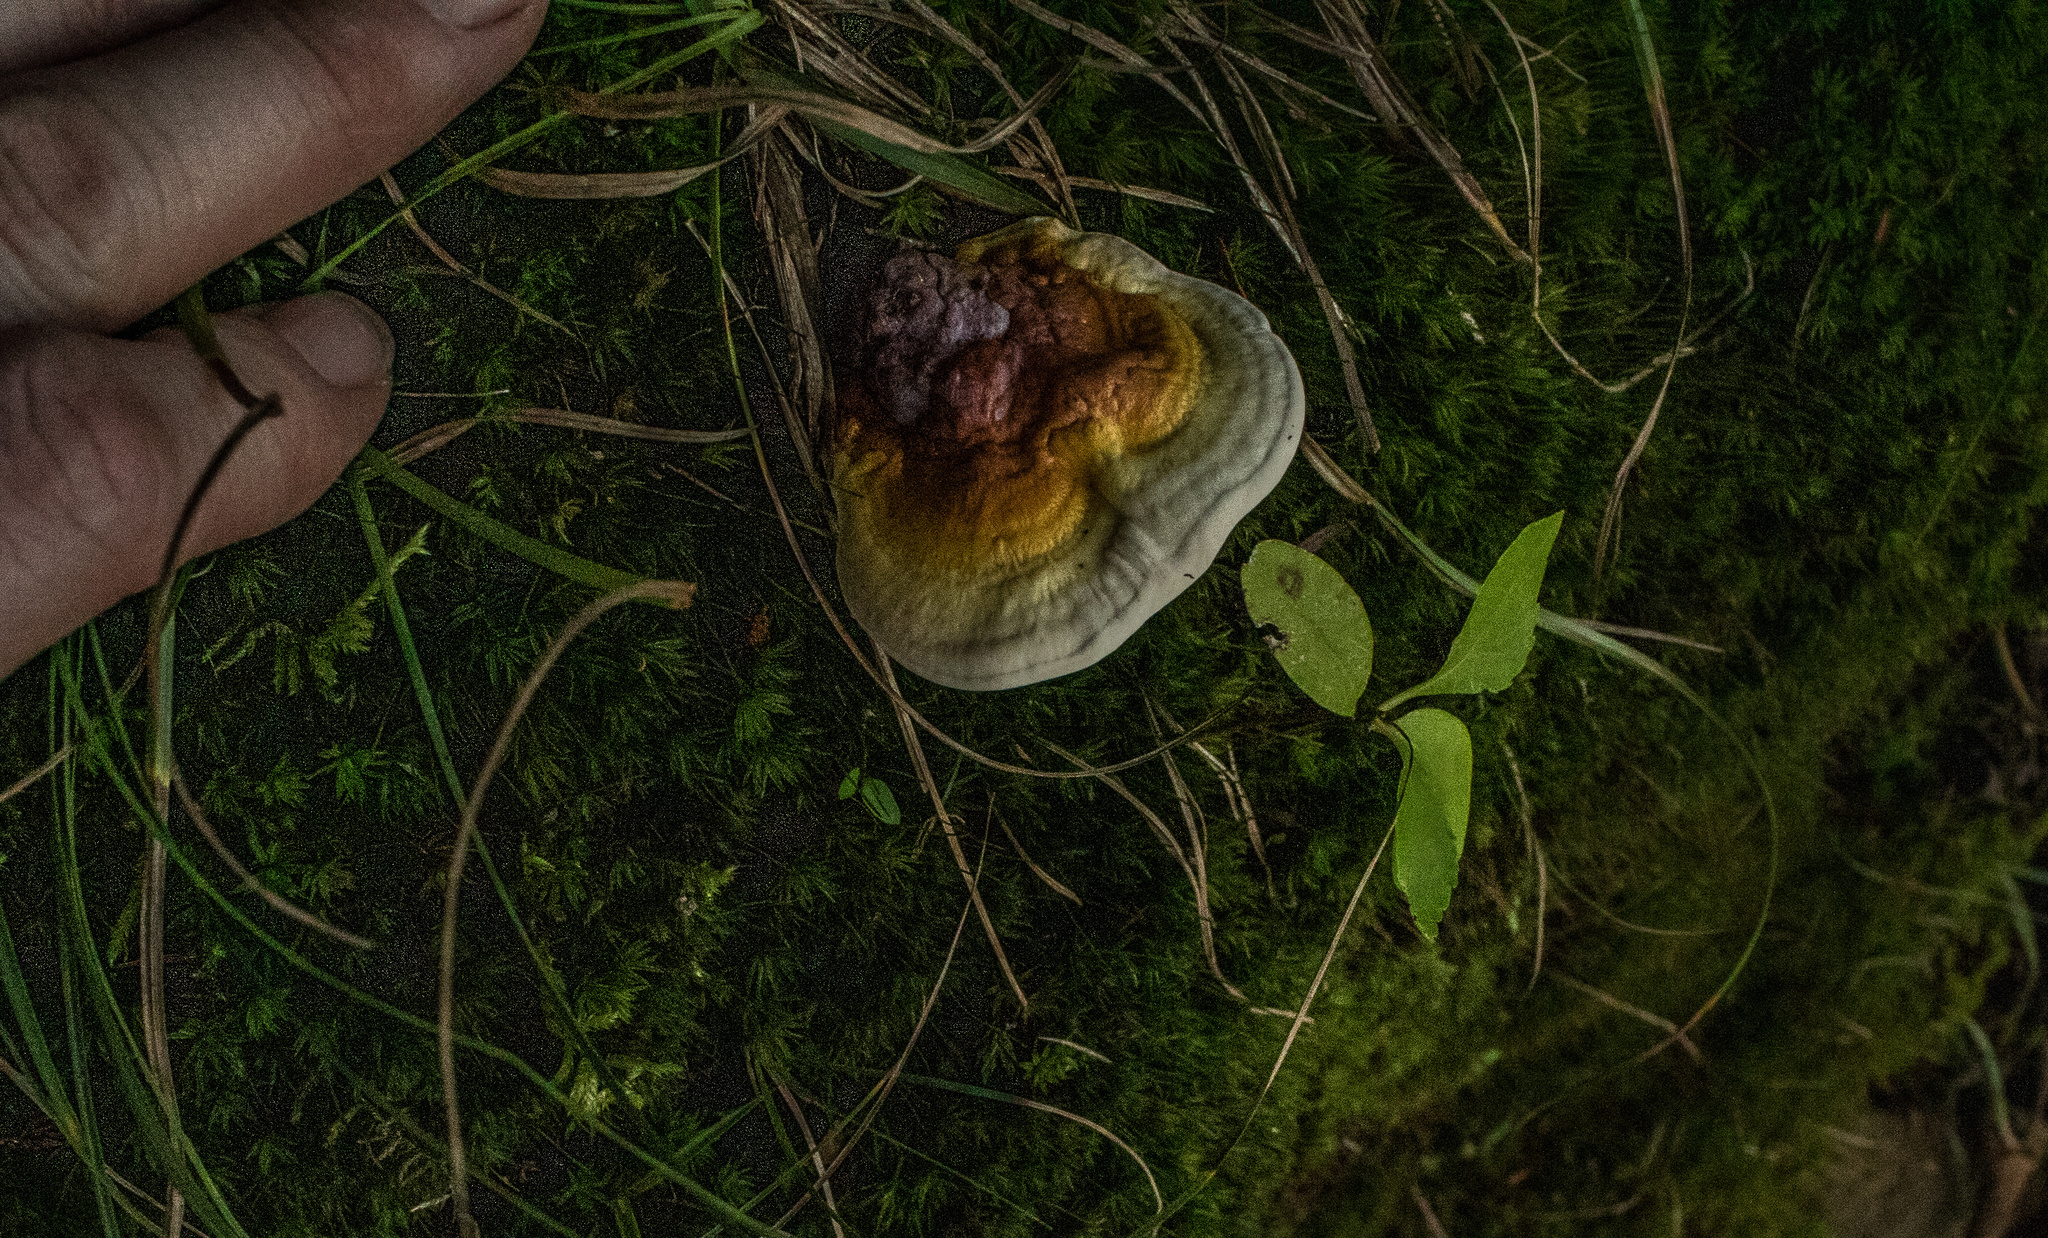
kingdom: Fungi
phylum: Basidiomycota
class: Agaricomycetes
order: Polyporales
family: Polyporaceae
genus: Ganoderma
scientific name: Ganoderma curtisii
